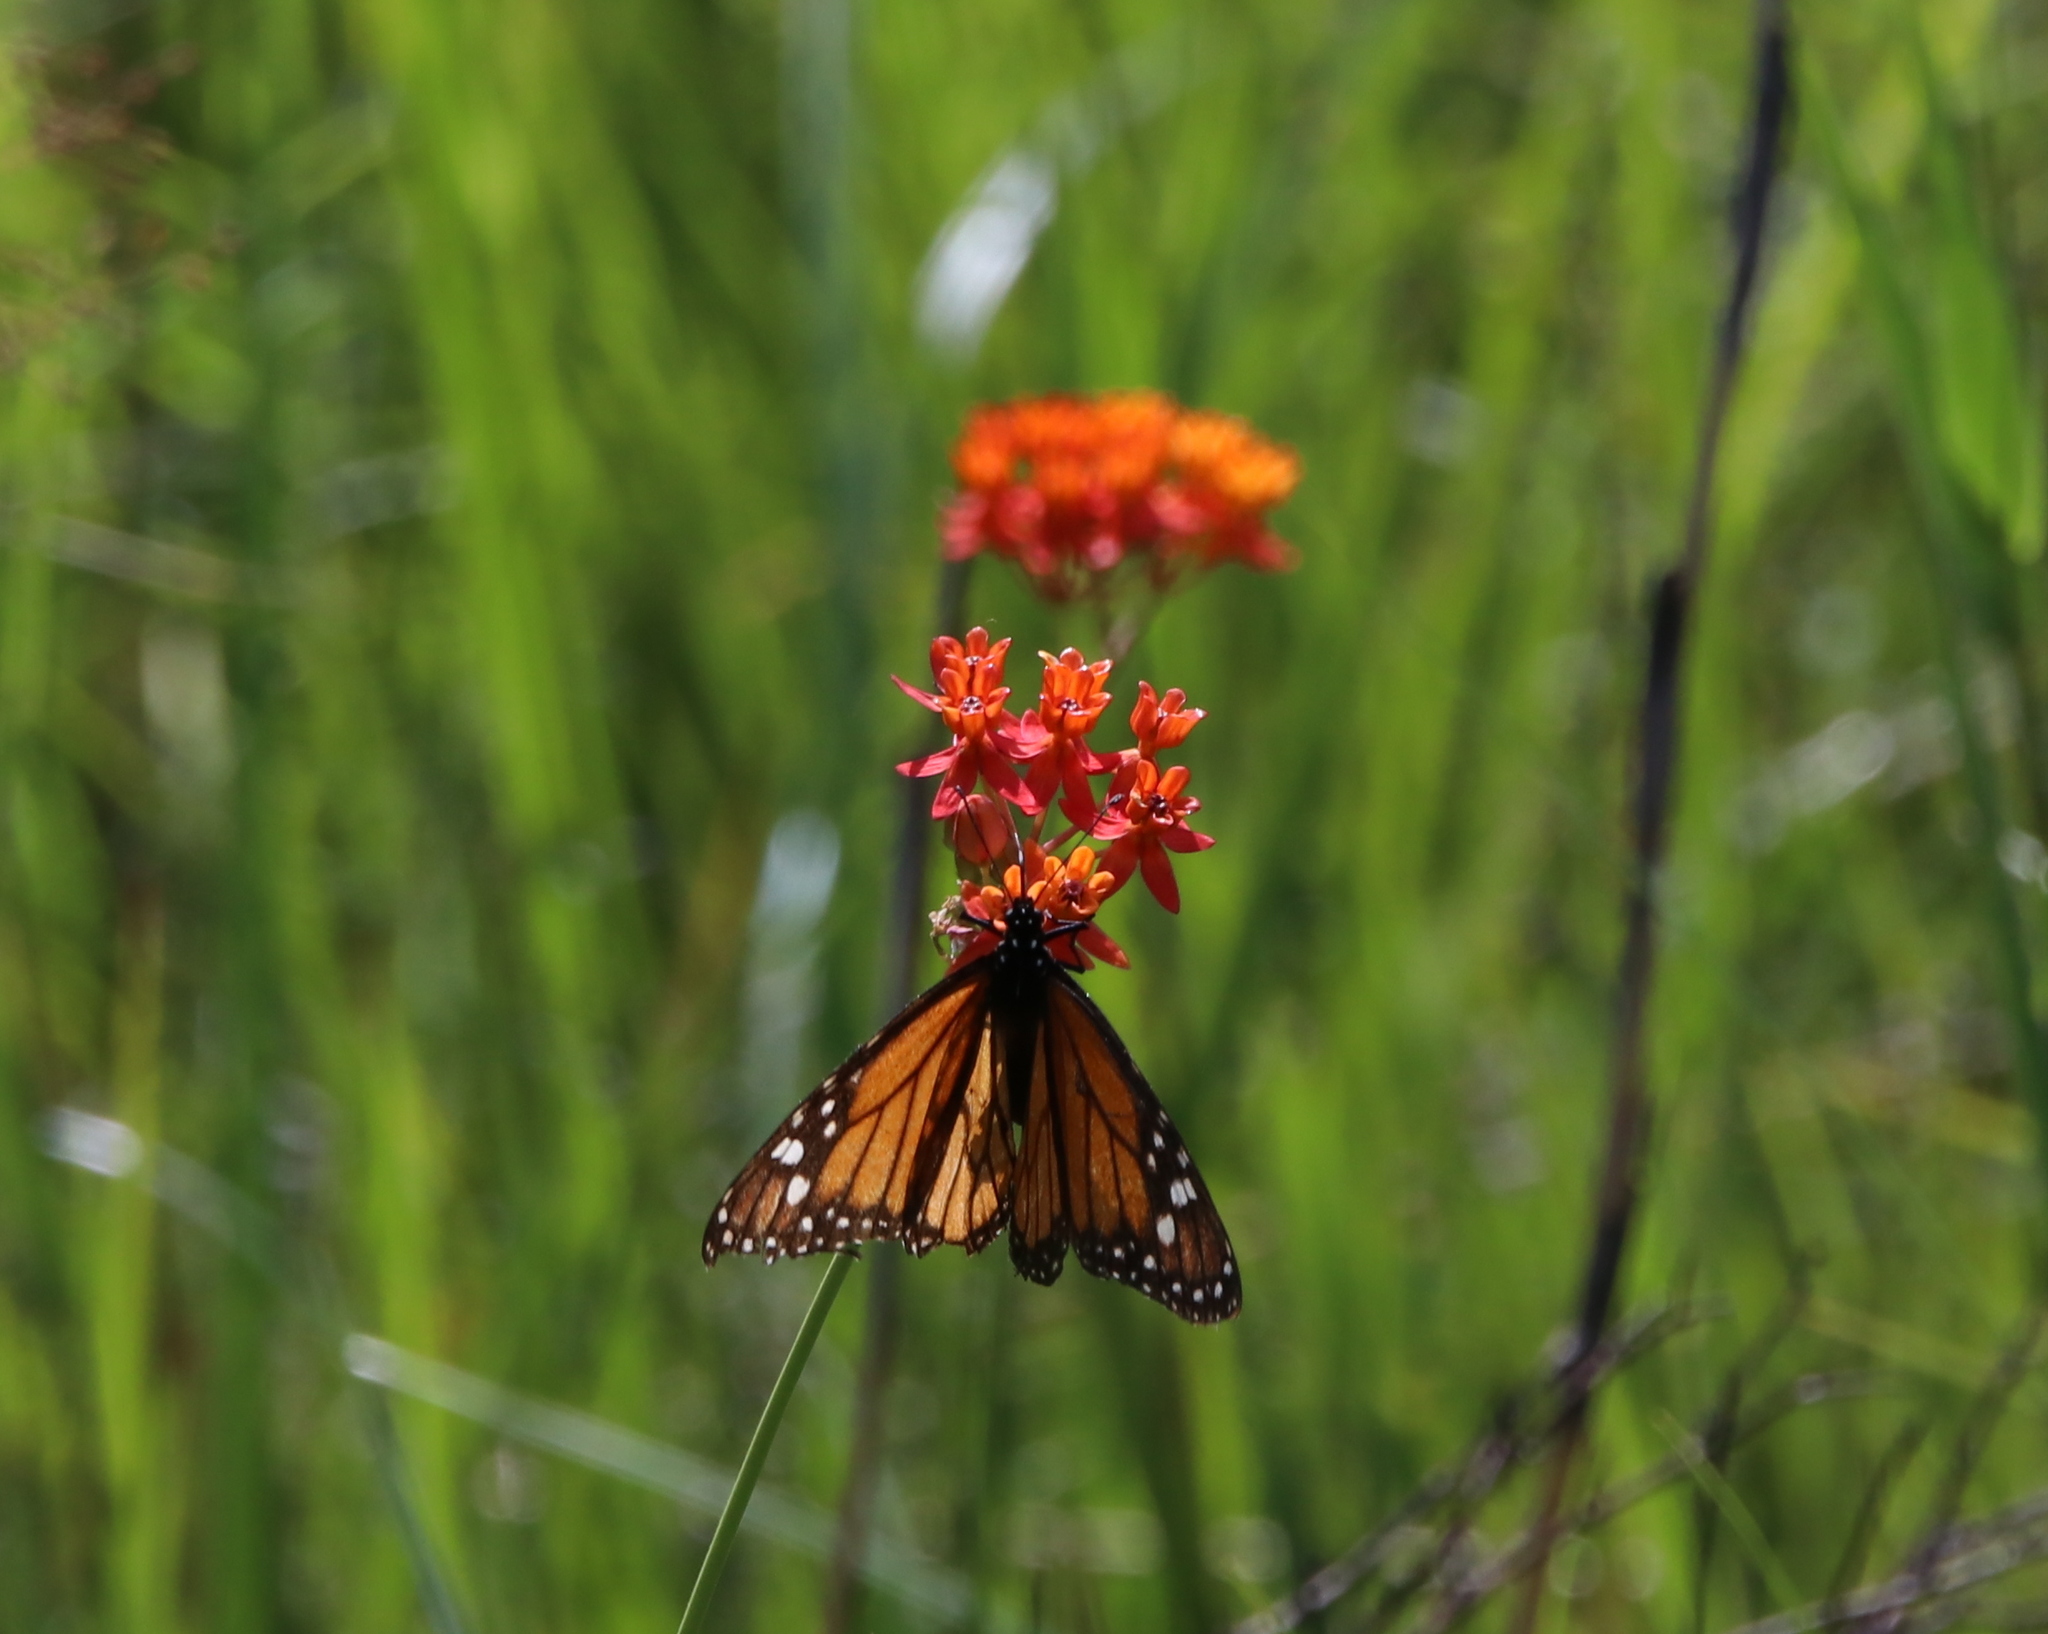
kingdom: Animalia
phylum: Arthropoda
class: Insecta
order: Lepidoptera
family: Nymphalidae
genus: Danaus
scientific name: Danaus plexippus
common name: Monarch
